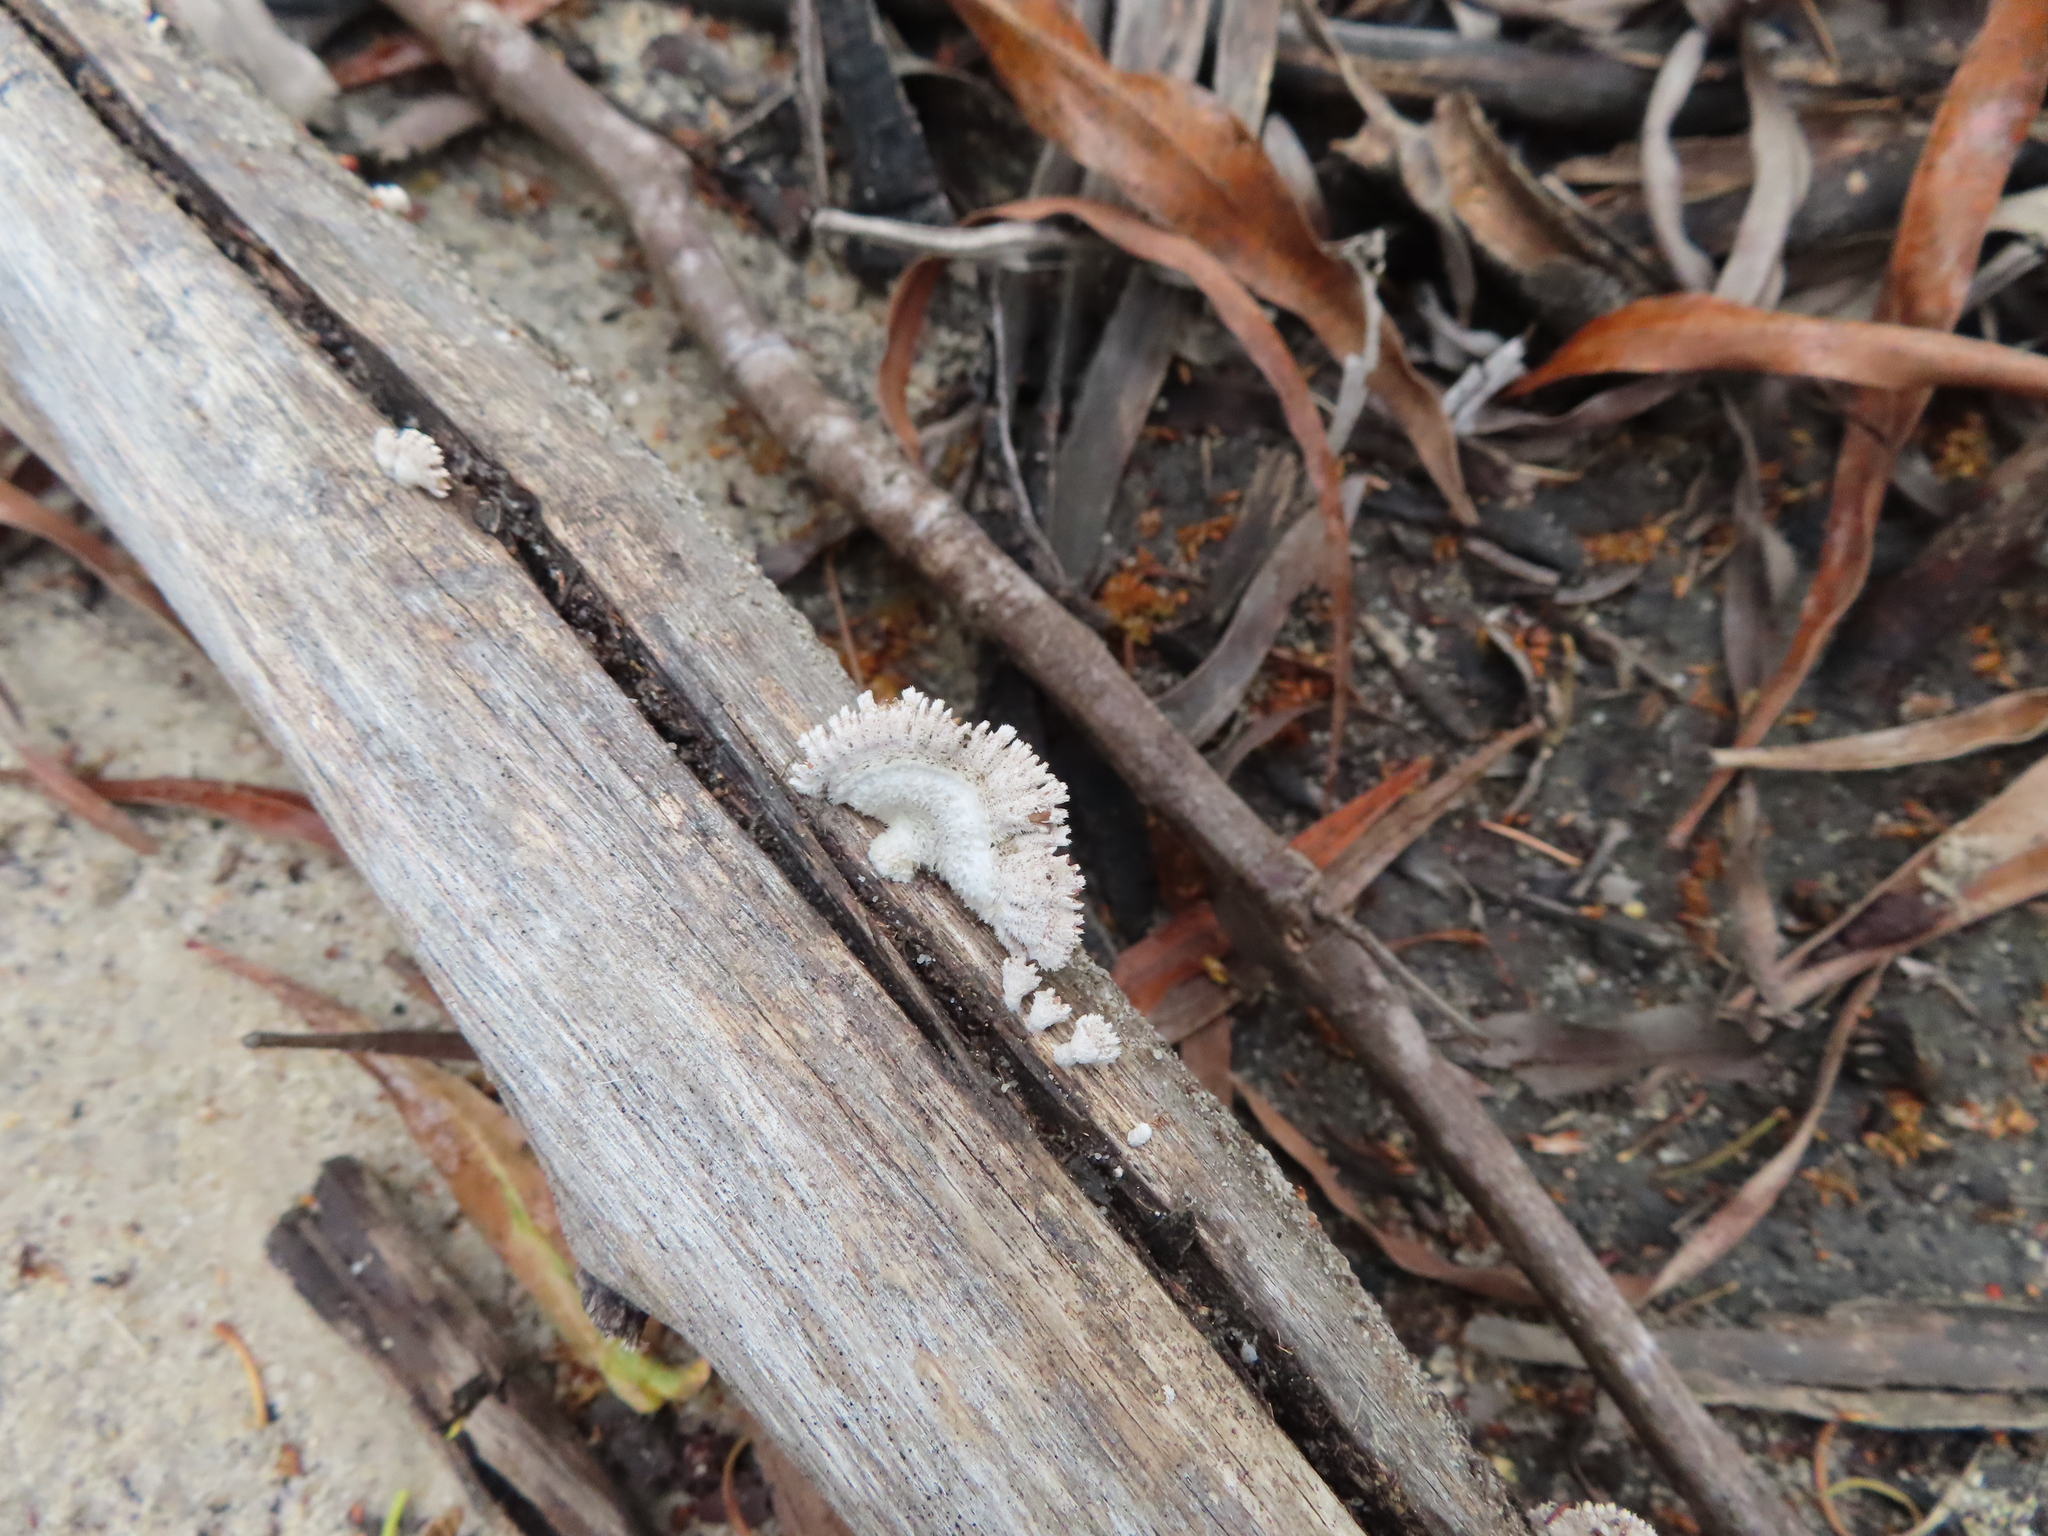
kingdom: Fungi
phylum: Basidiomycota
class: Agaricomycetes
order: Agaricales
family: Schizophyllaceae
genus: Schizophyllum
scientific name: Schizophyllum commune
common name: Common porecrust
